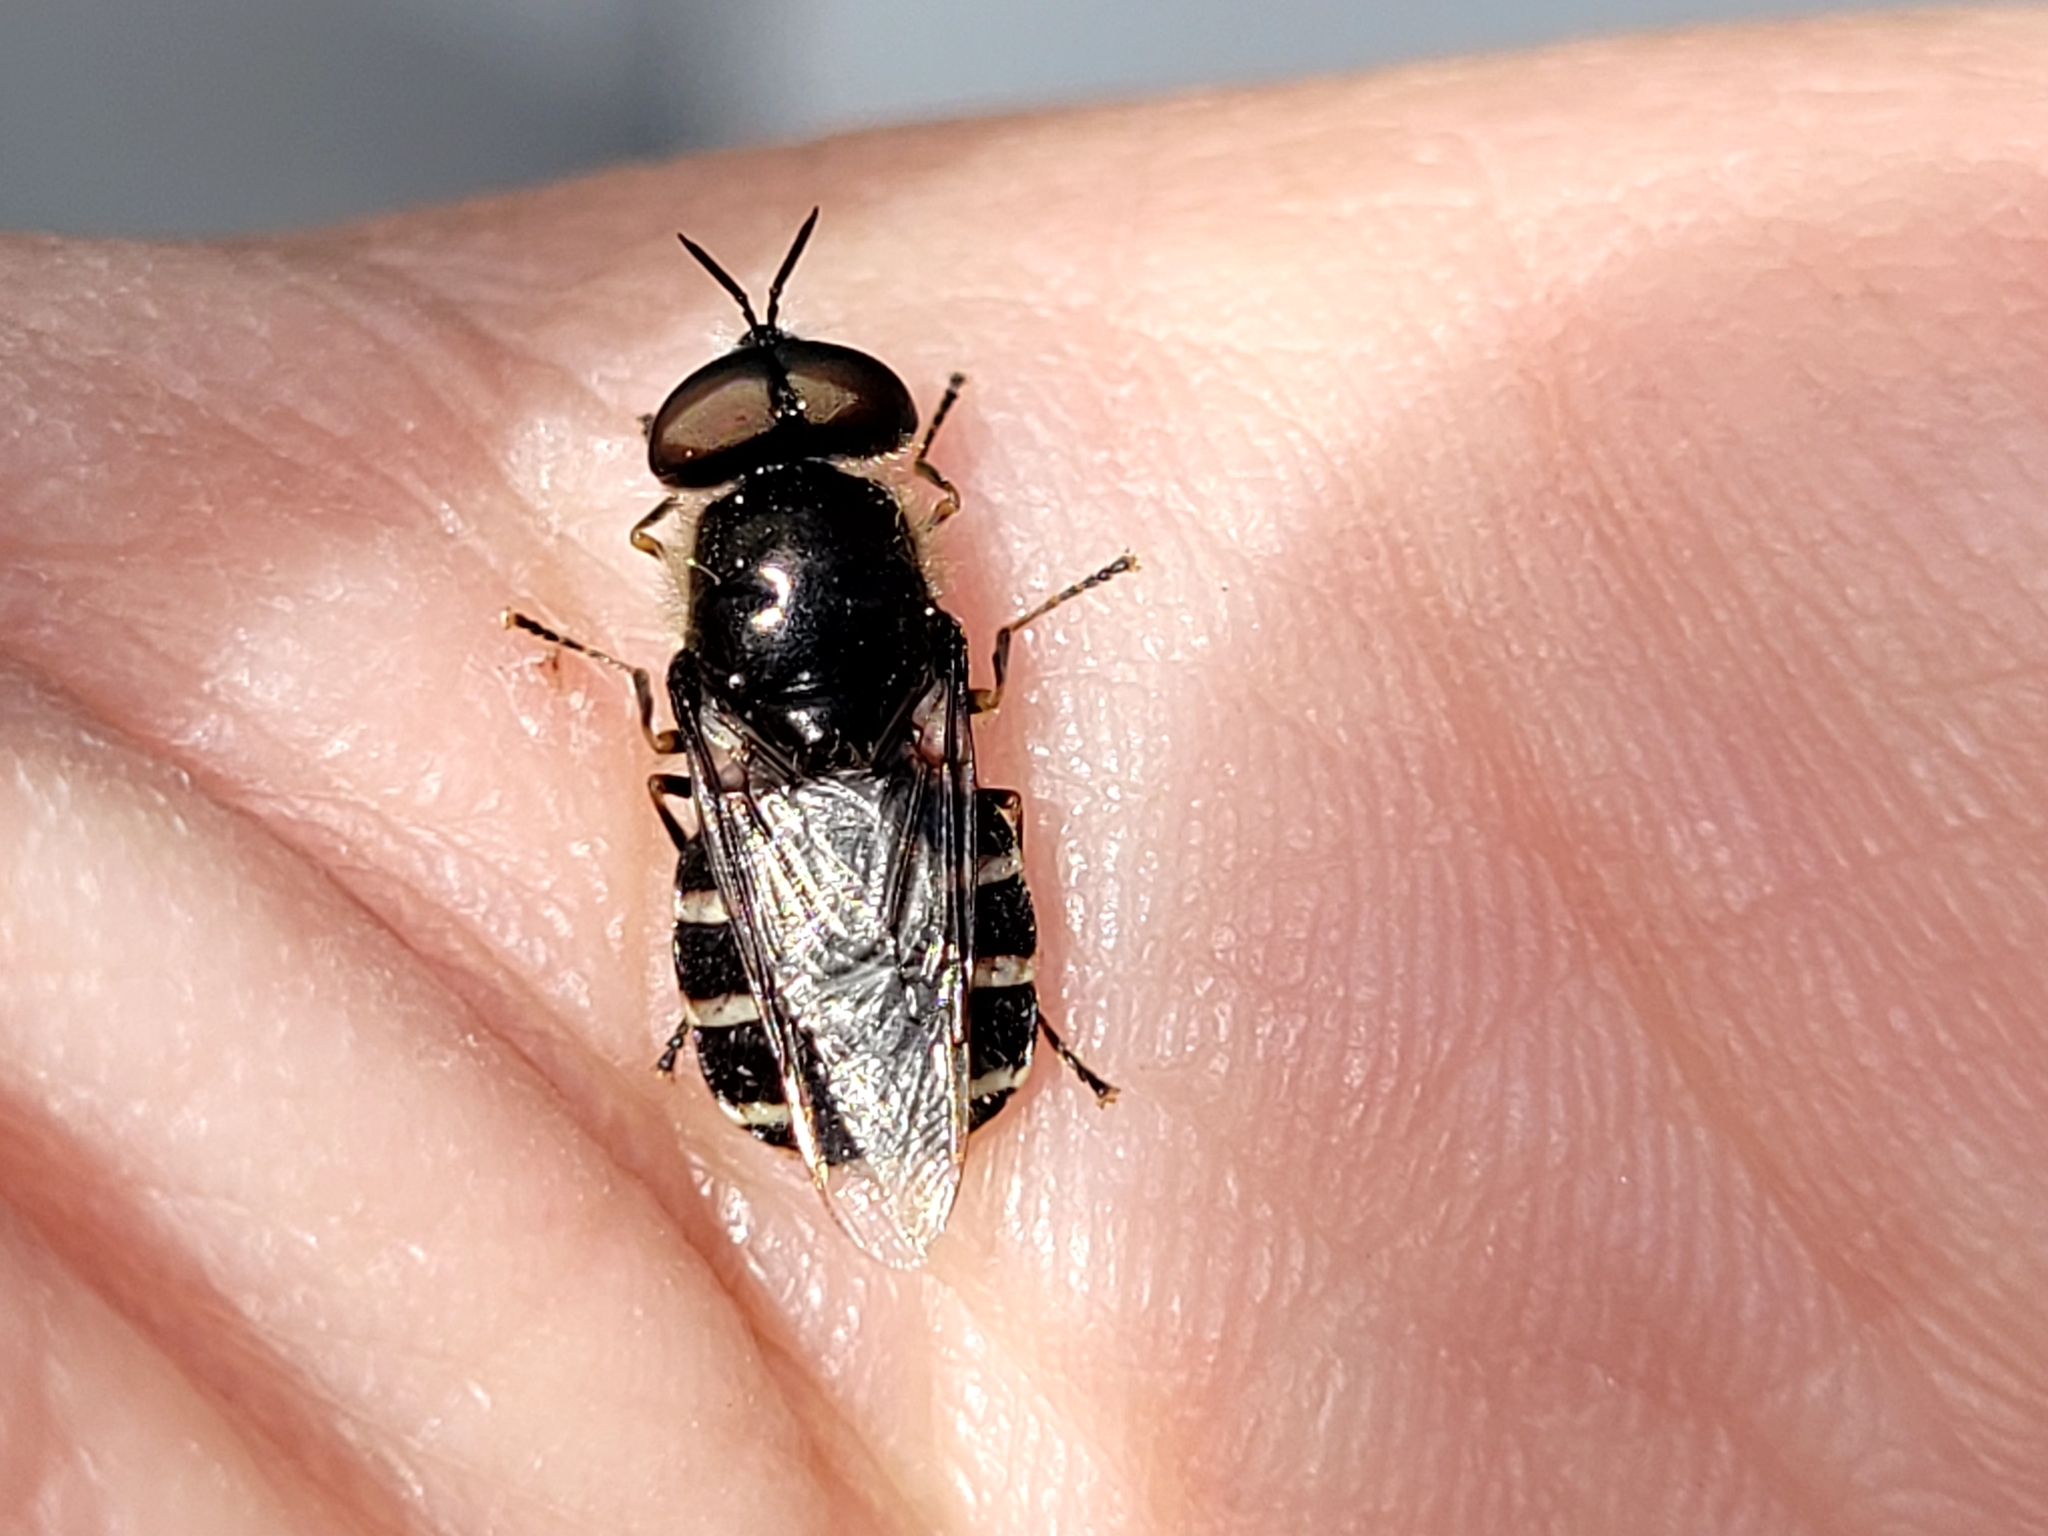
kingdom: Animalia
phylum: Arthropoda
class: Insecta
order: Diptera
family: Stratiomyidae
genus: Odontomyia
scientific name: Odontomyia interrupta
